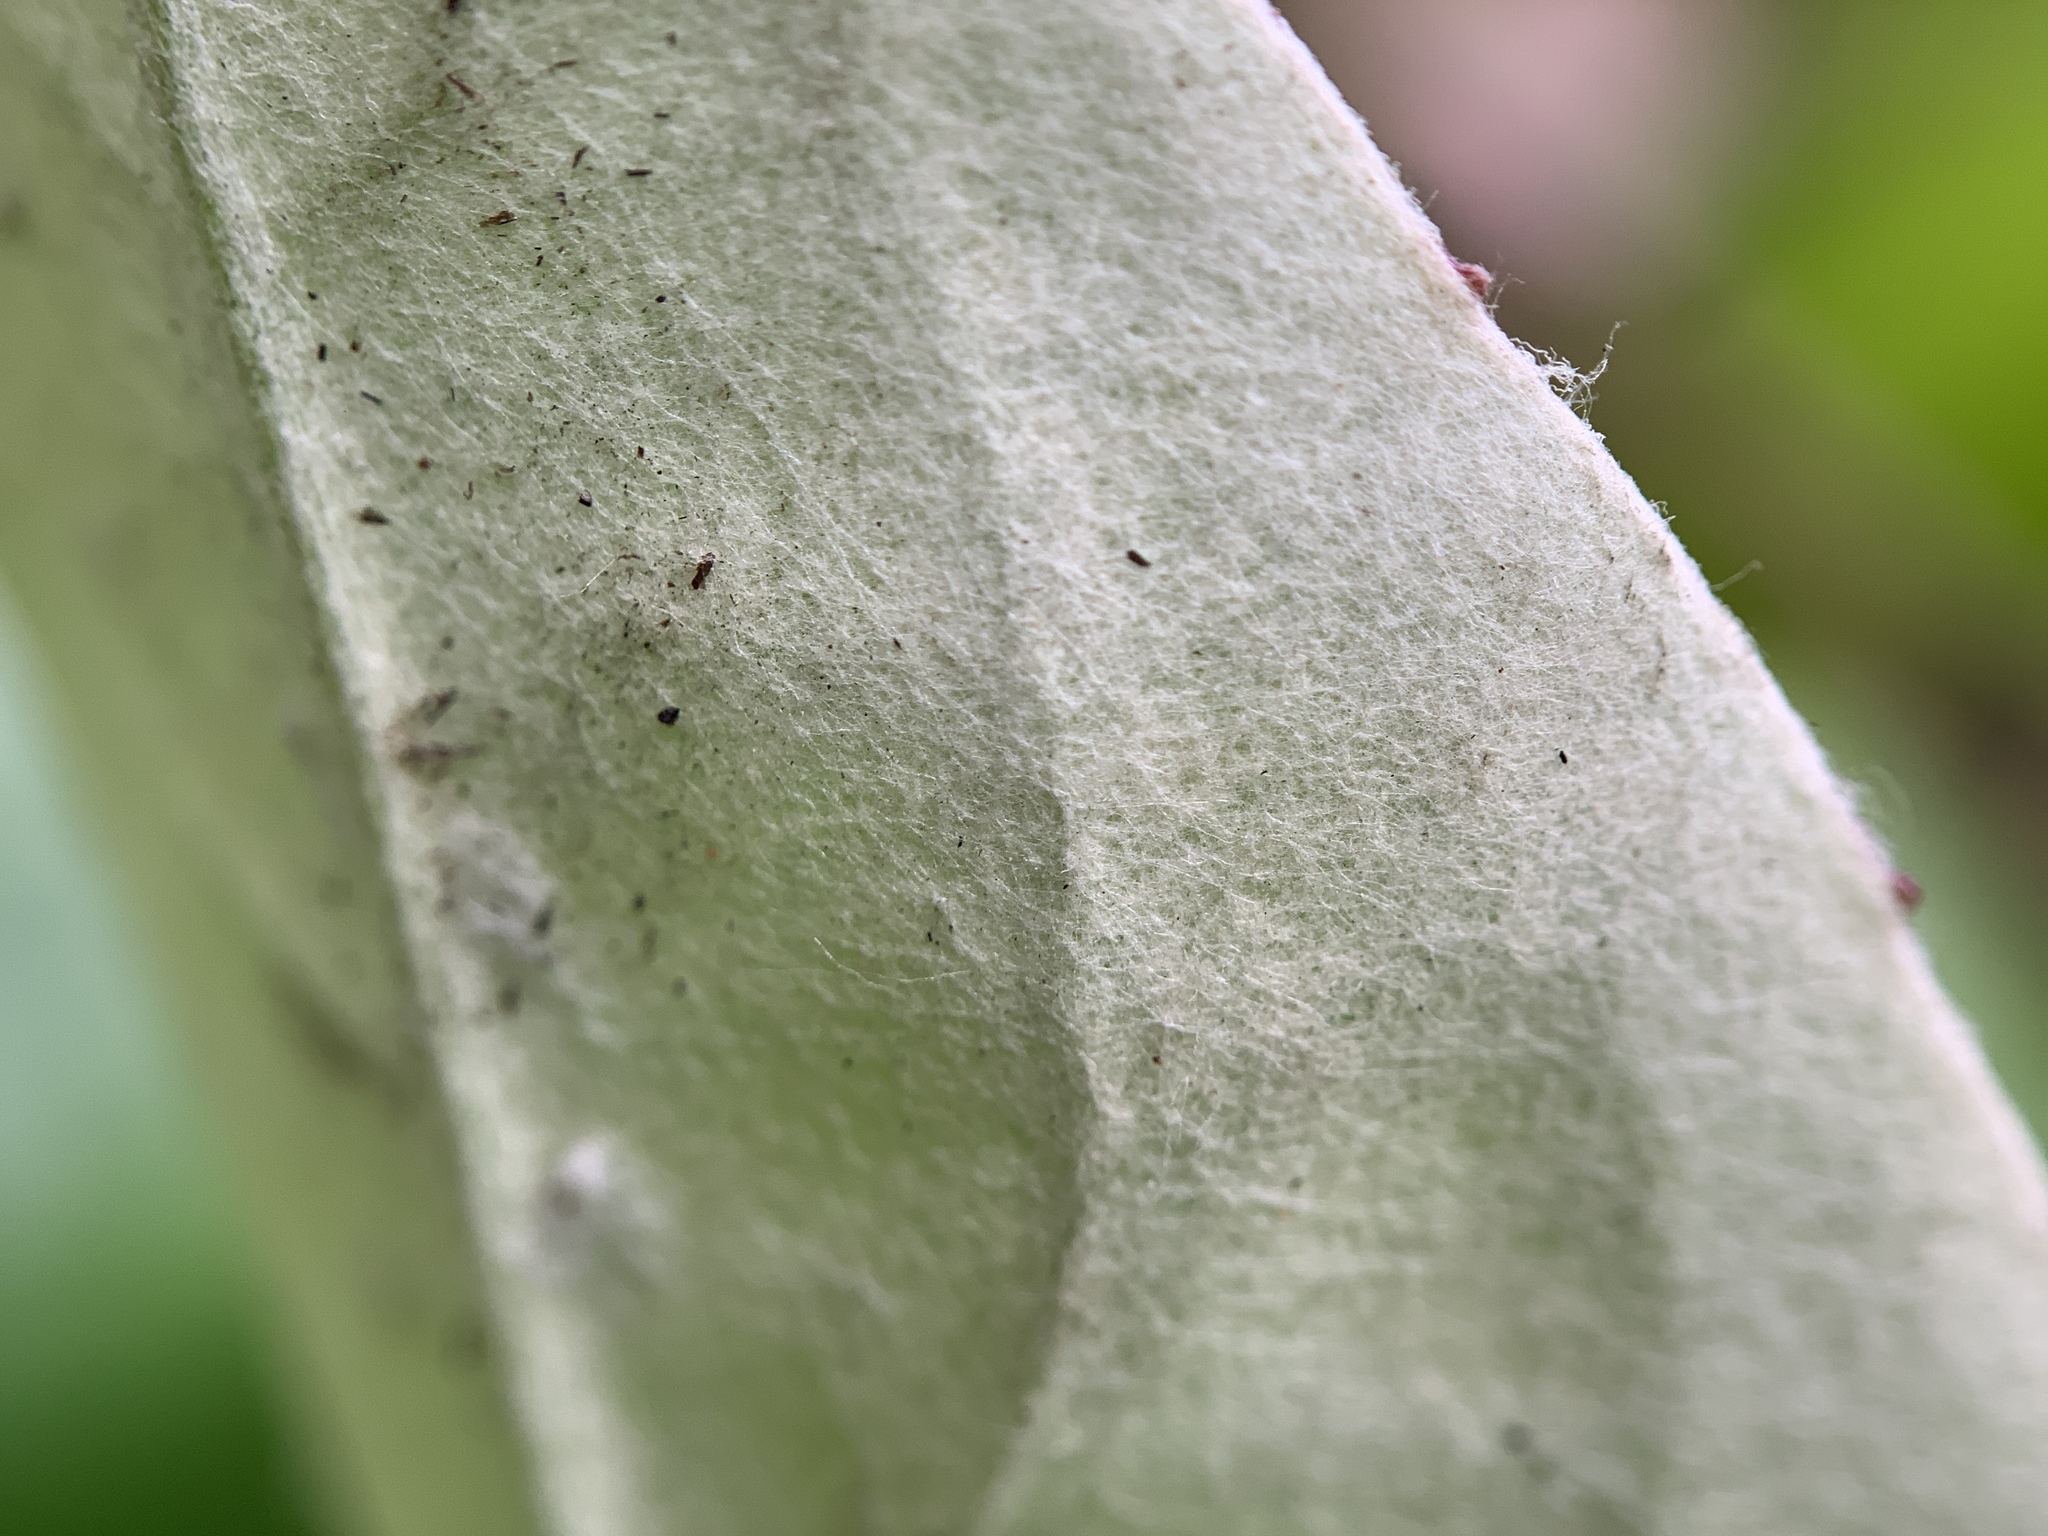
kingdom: Plantae
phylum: Tracheophyta
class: Magnoliopsida
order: Asterales
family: Asteraceae
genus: Chaptalia
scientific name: Chaptalia tomentosa
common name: Woolly sunbonnet
